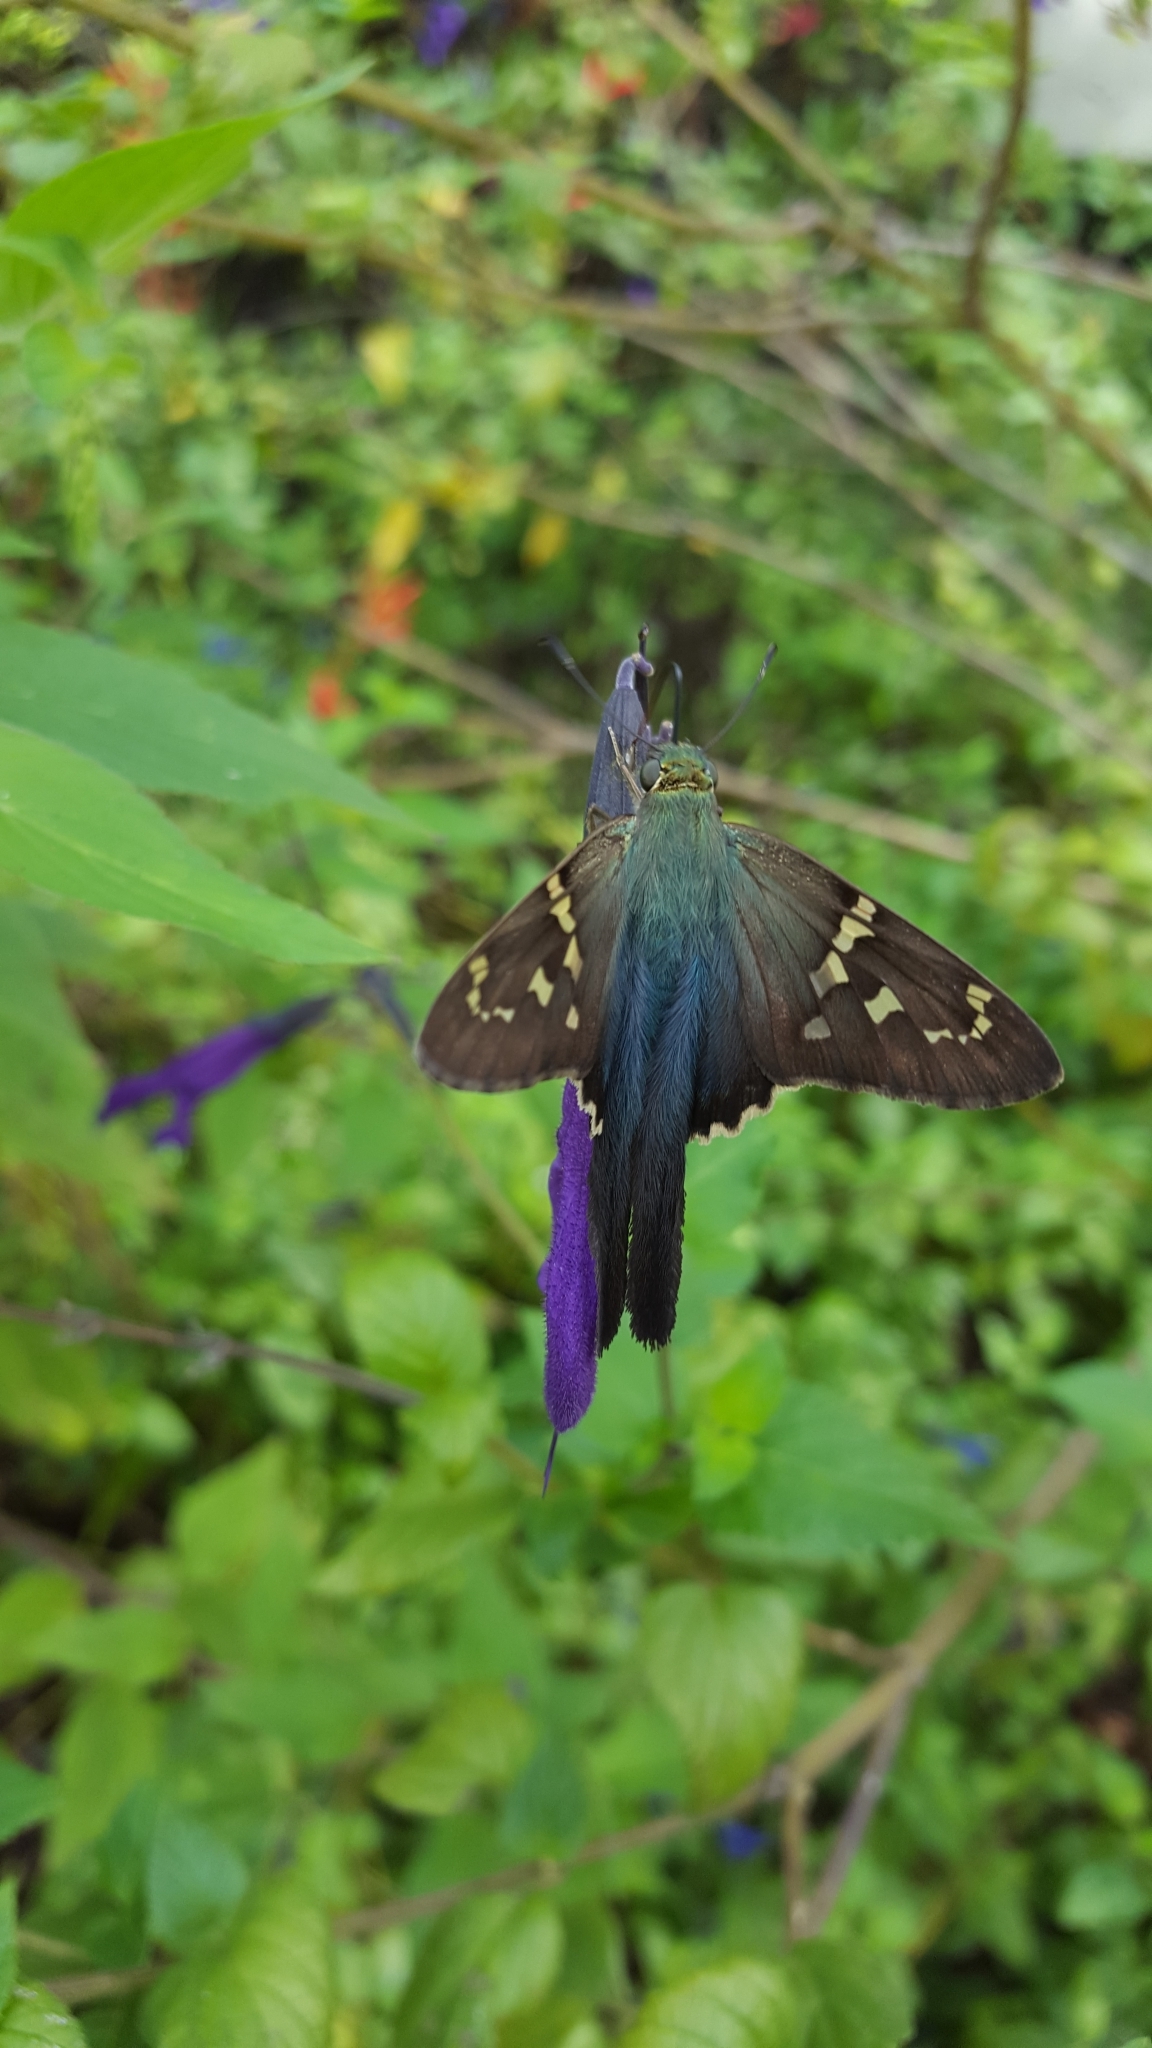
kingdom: Animalia
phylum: Arthropoda
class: Insecta
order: Lepidoptera
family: Hesperiidae
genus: Urbanus
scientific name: Urbanus proteus
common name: Long-tailed skipper
